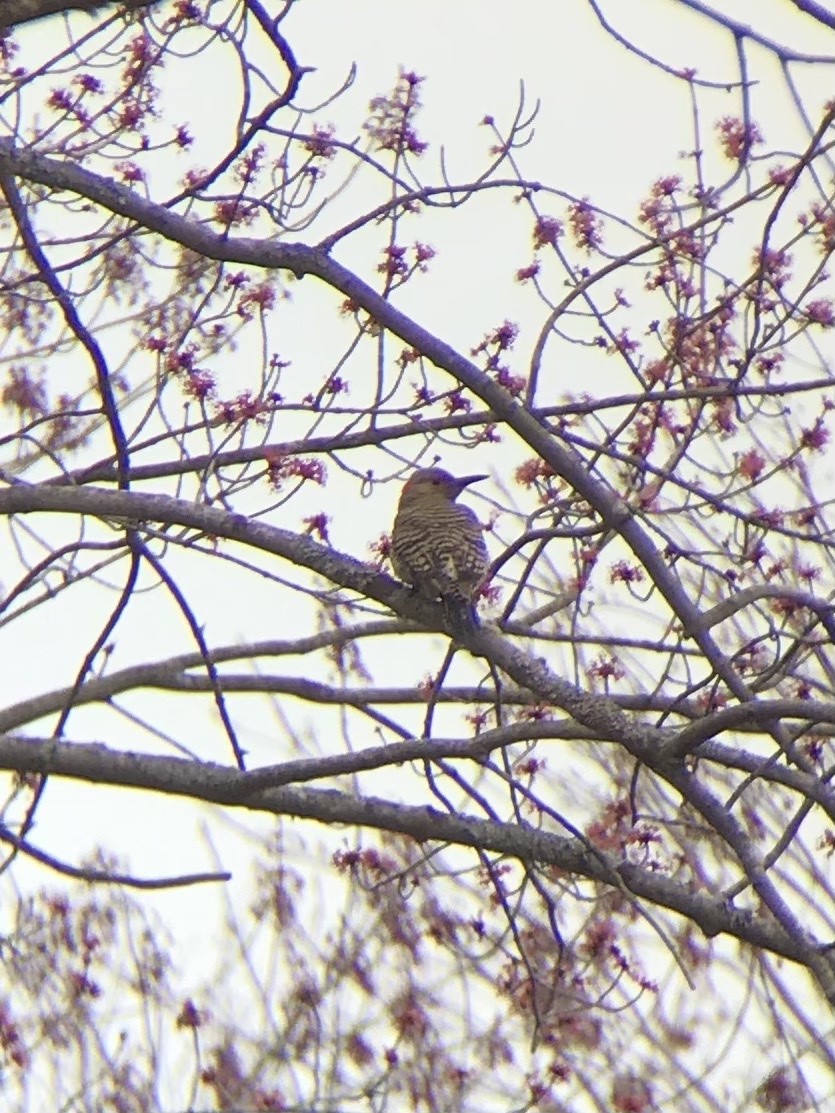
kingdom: Animalia
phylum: Chordata
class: Aves
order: Piciformes
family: Picidae
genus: Colaptes
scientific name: Colaptes auratus
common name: Northern flicker
